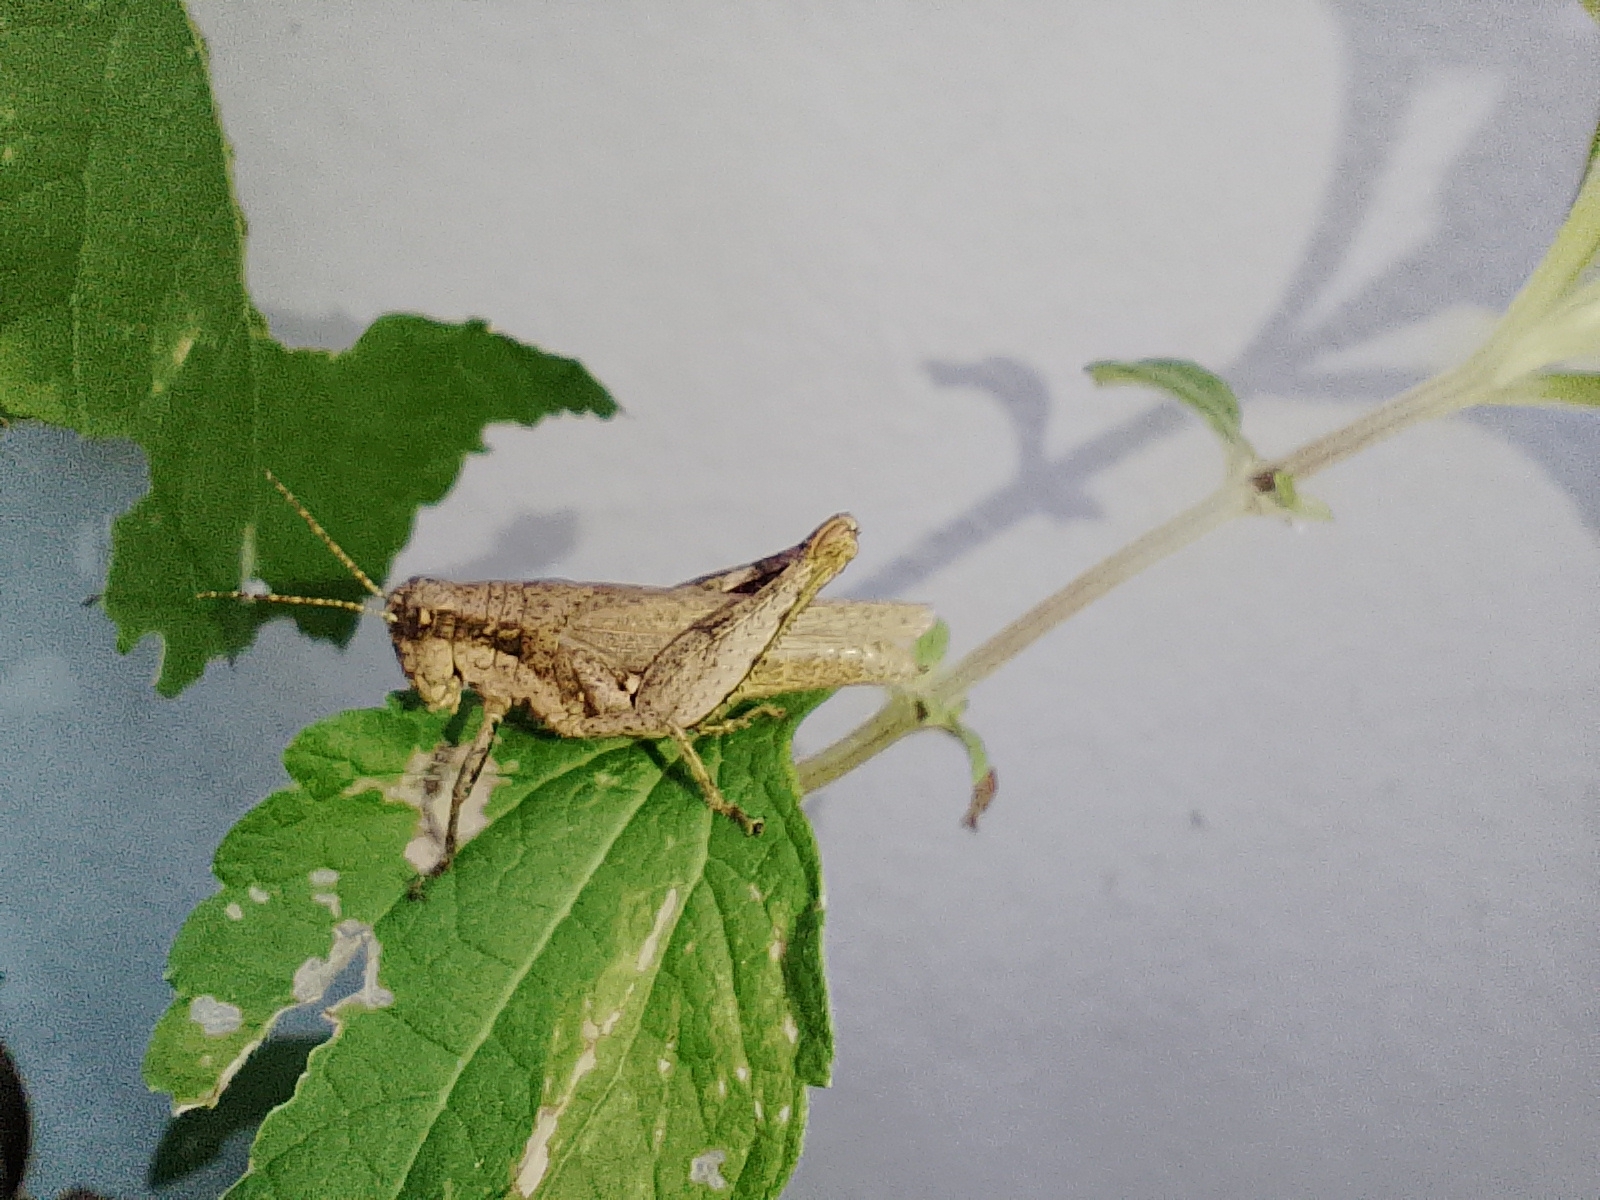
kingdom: Animalia
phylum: Arthropoda
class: Insecta
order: Orthoptera
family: Acrididae
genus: Ronderosia
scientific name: Ronderosia bergii
